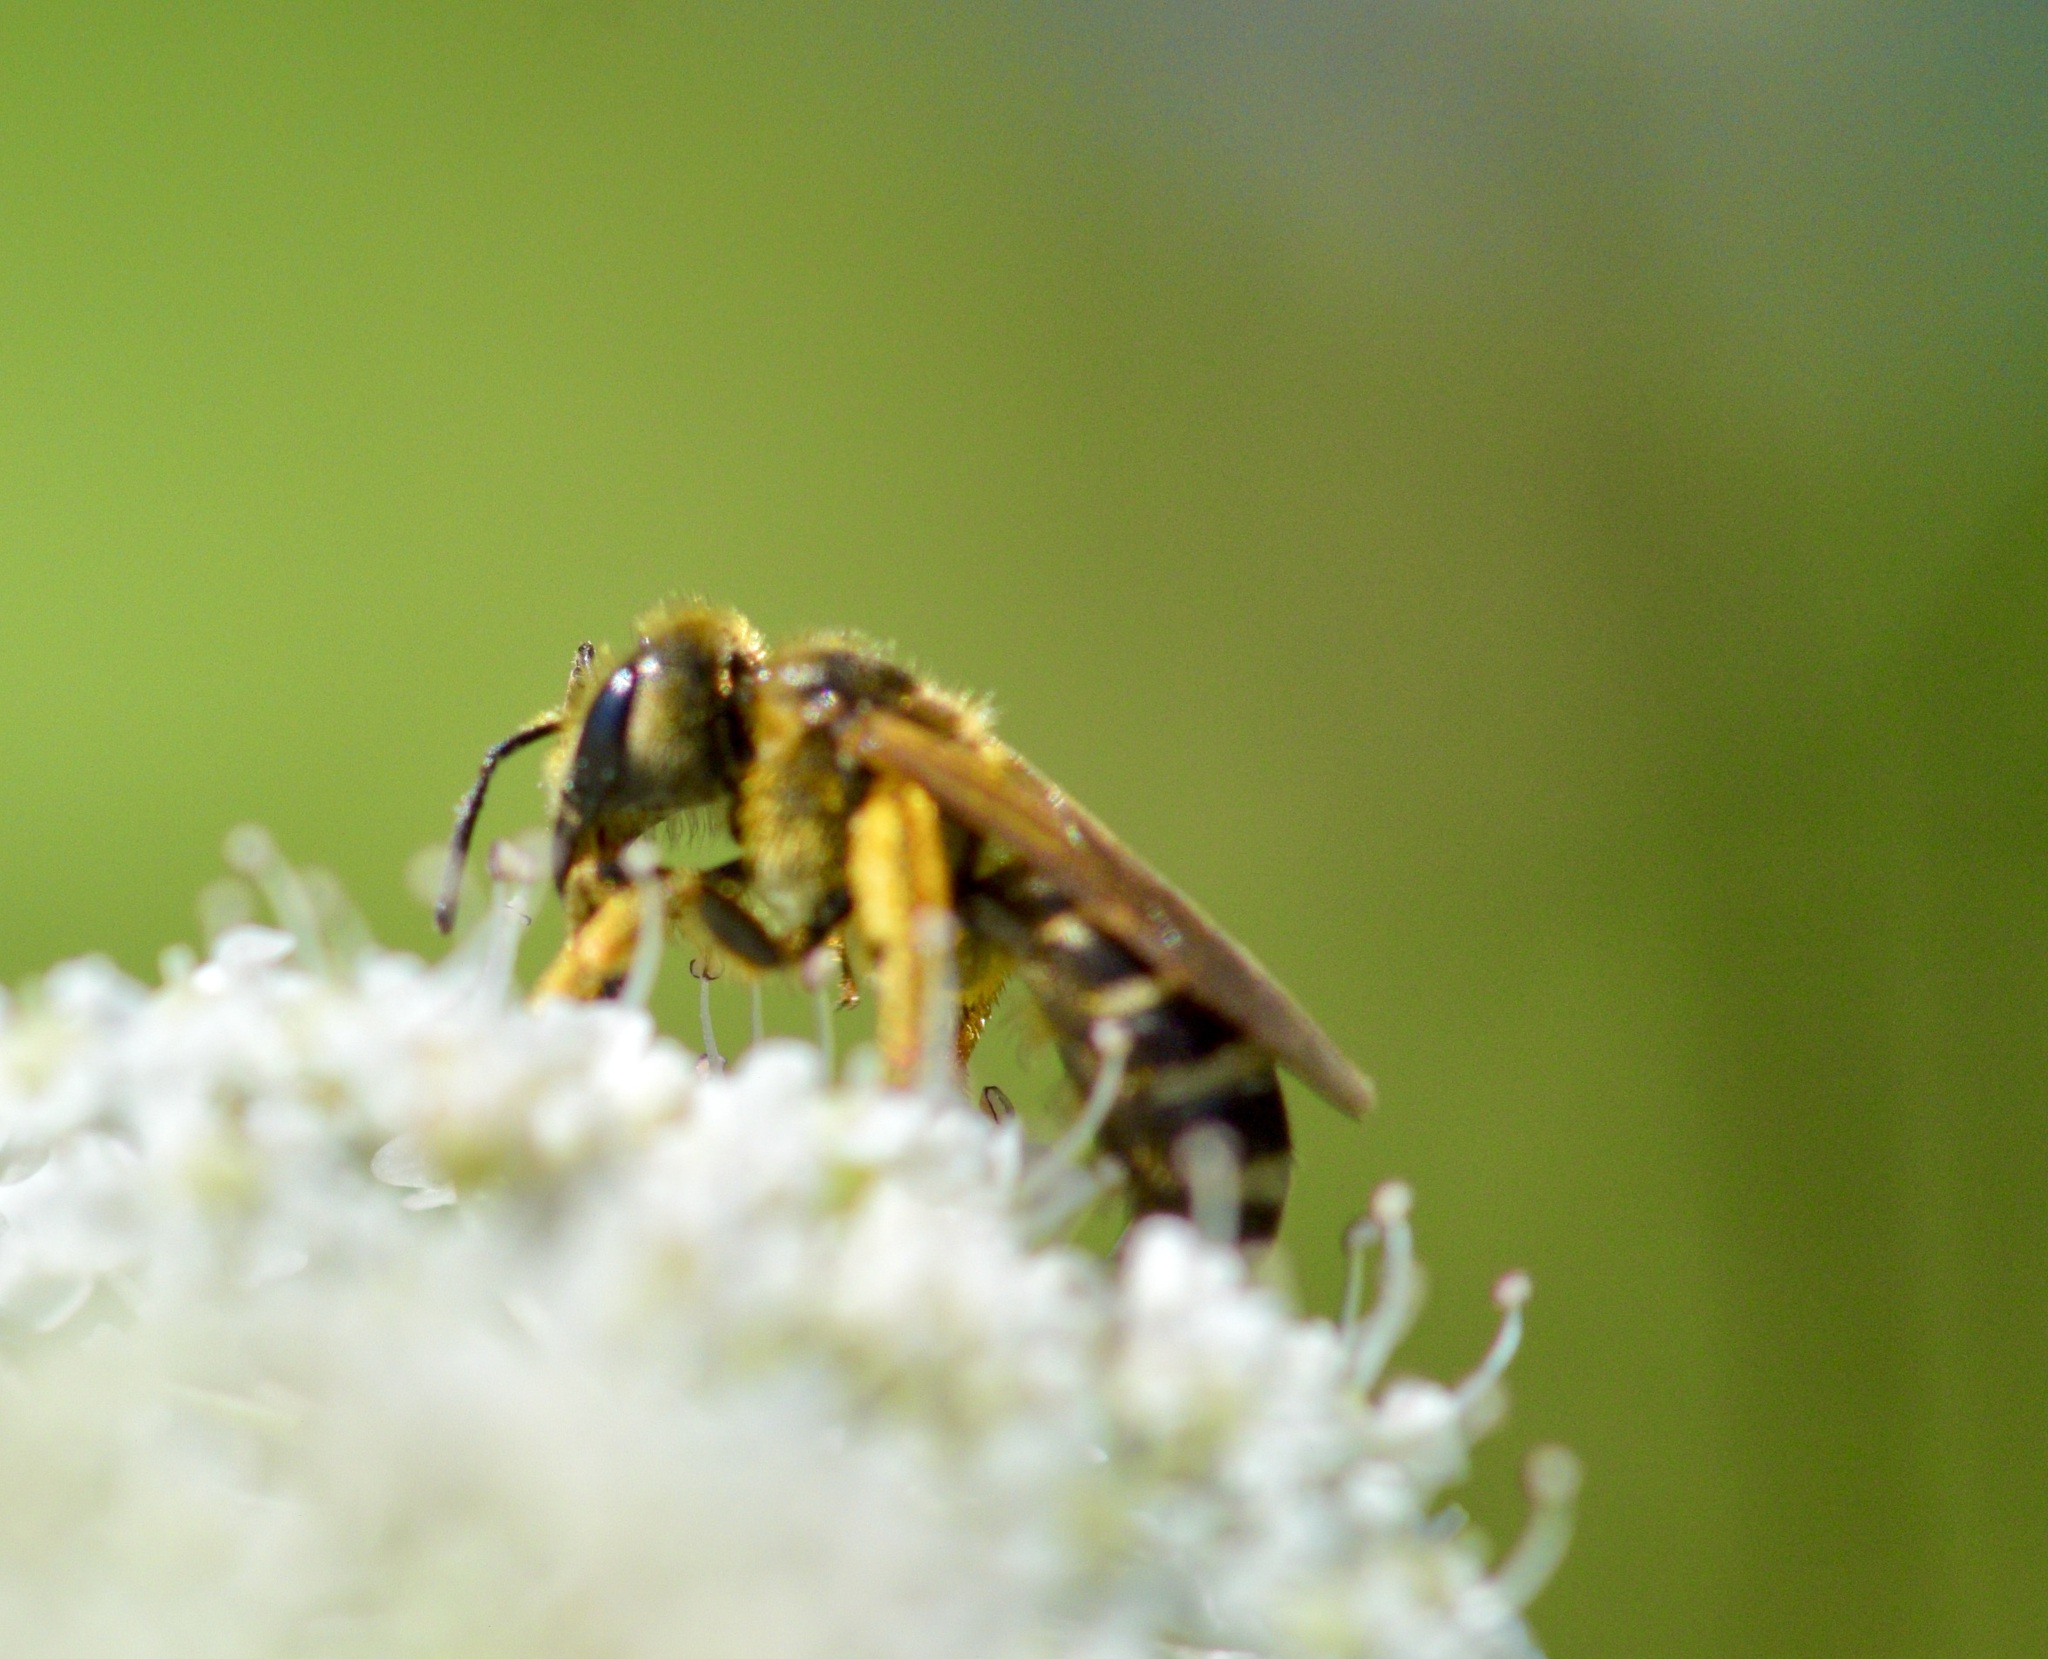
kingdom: Animalia
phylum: Arthropoda
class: Insecta
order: Hymenoptera
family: Halictidae
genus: Halictus
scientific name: Halictus ligatus
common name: Ligated furrow bee
